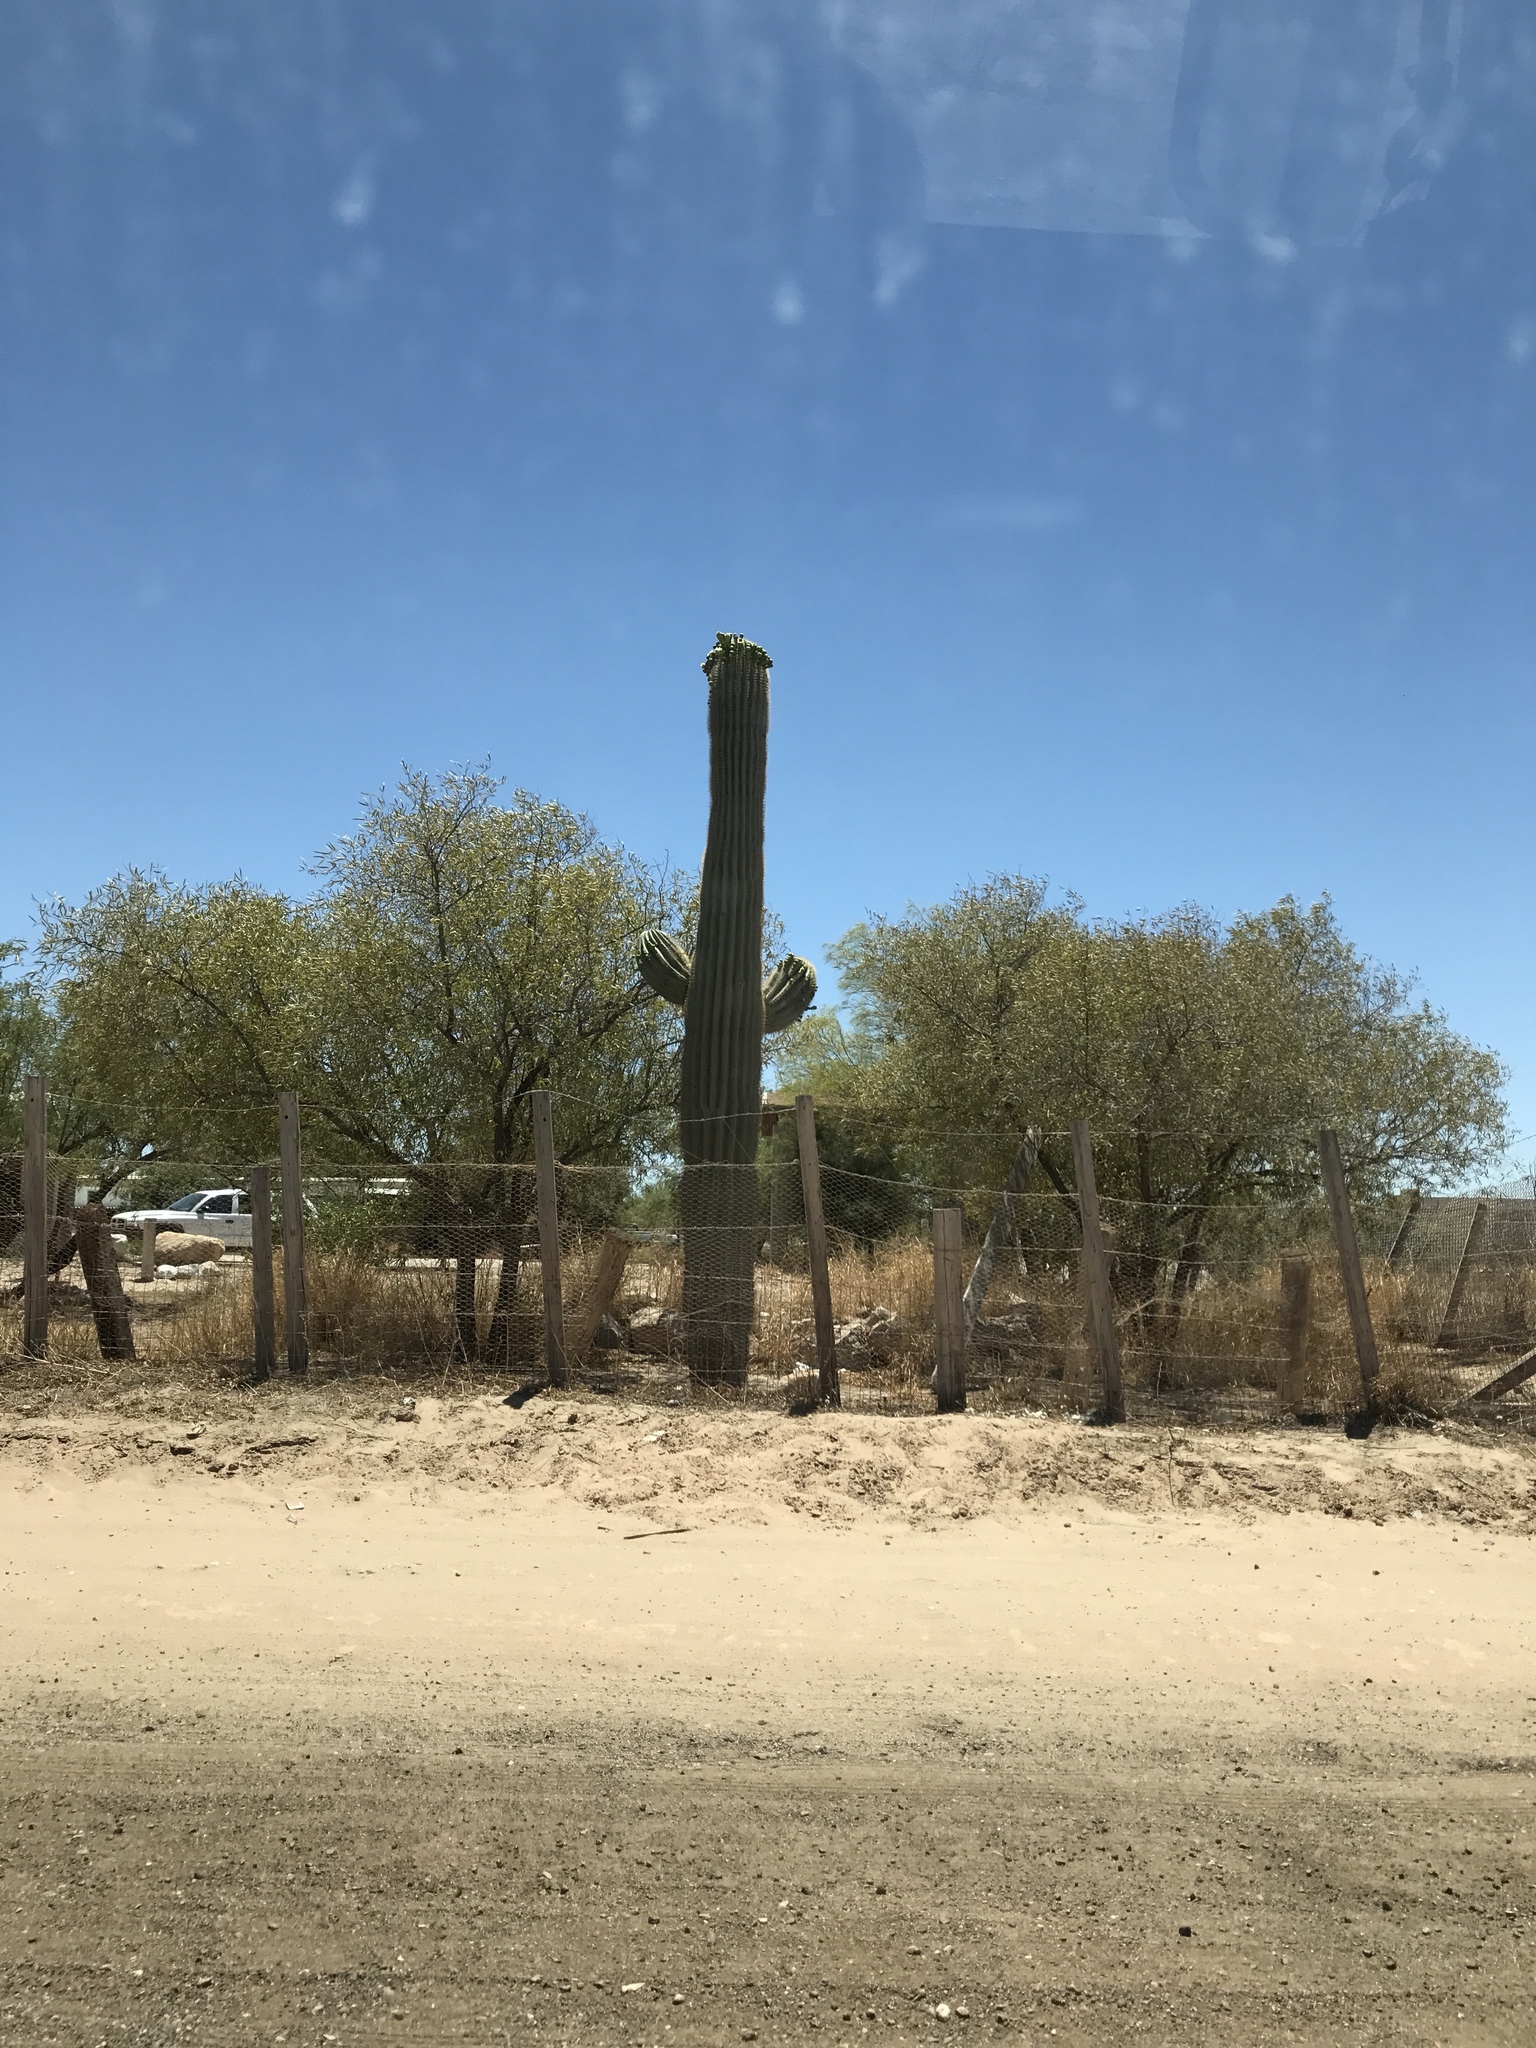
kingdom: Plantae
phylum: Tracheophyta
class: Magnoliopsida
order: Caryophyllales
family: Cactaceae
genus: Carnegiea
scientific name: Carnegiea gigantea
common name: Saguaro
